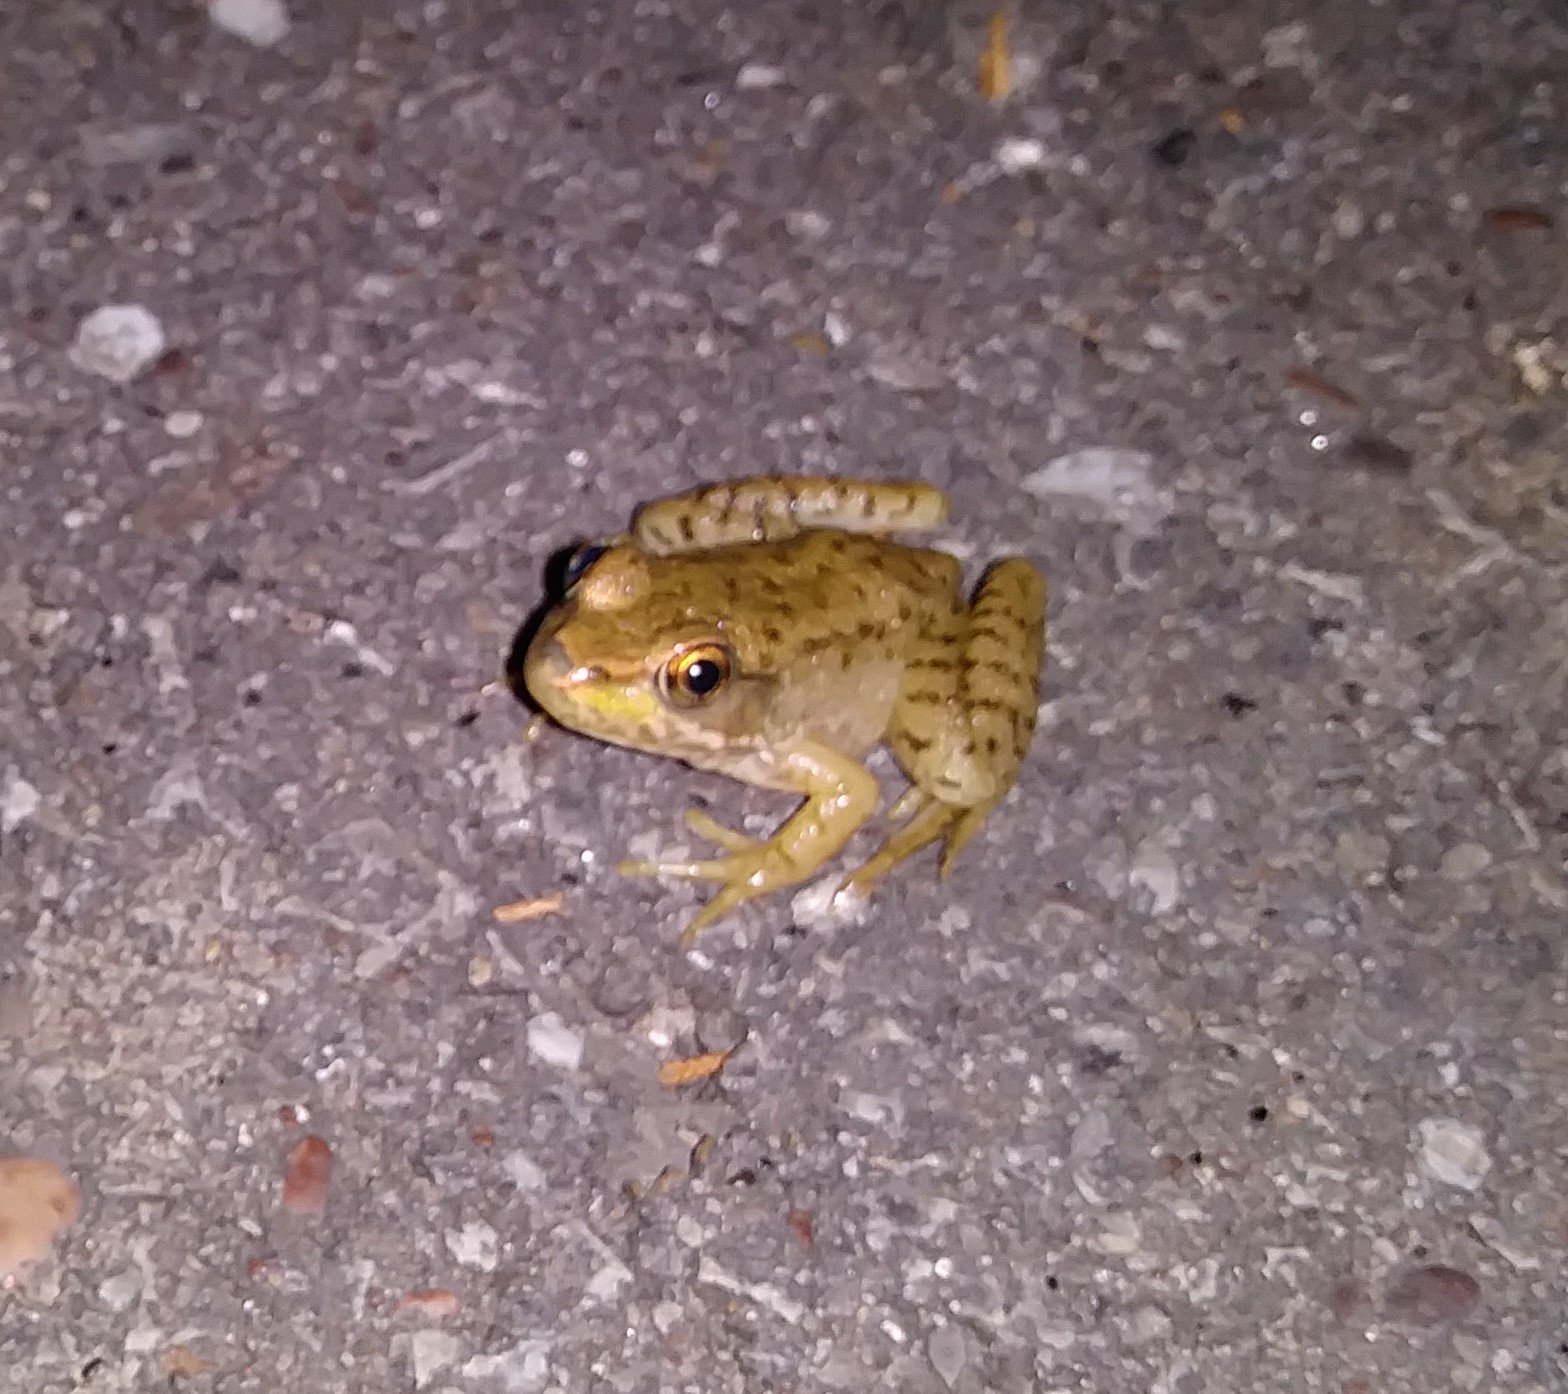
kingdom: Animalia
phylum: Chordata
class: Amphibia
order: Anura
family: Ranidae
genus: Lithobates
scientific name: Lithobates clamitans
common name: Green frog
